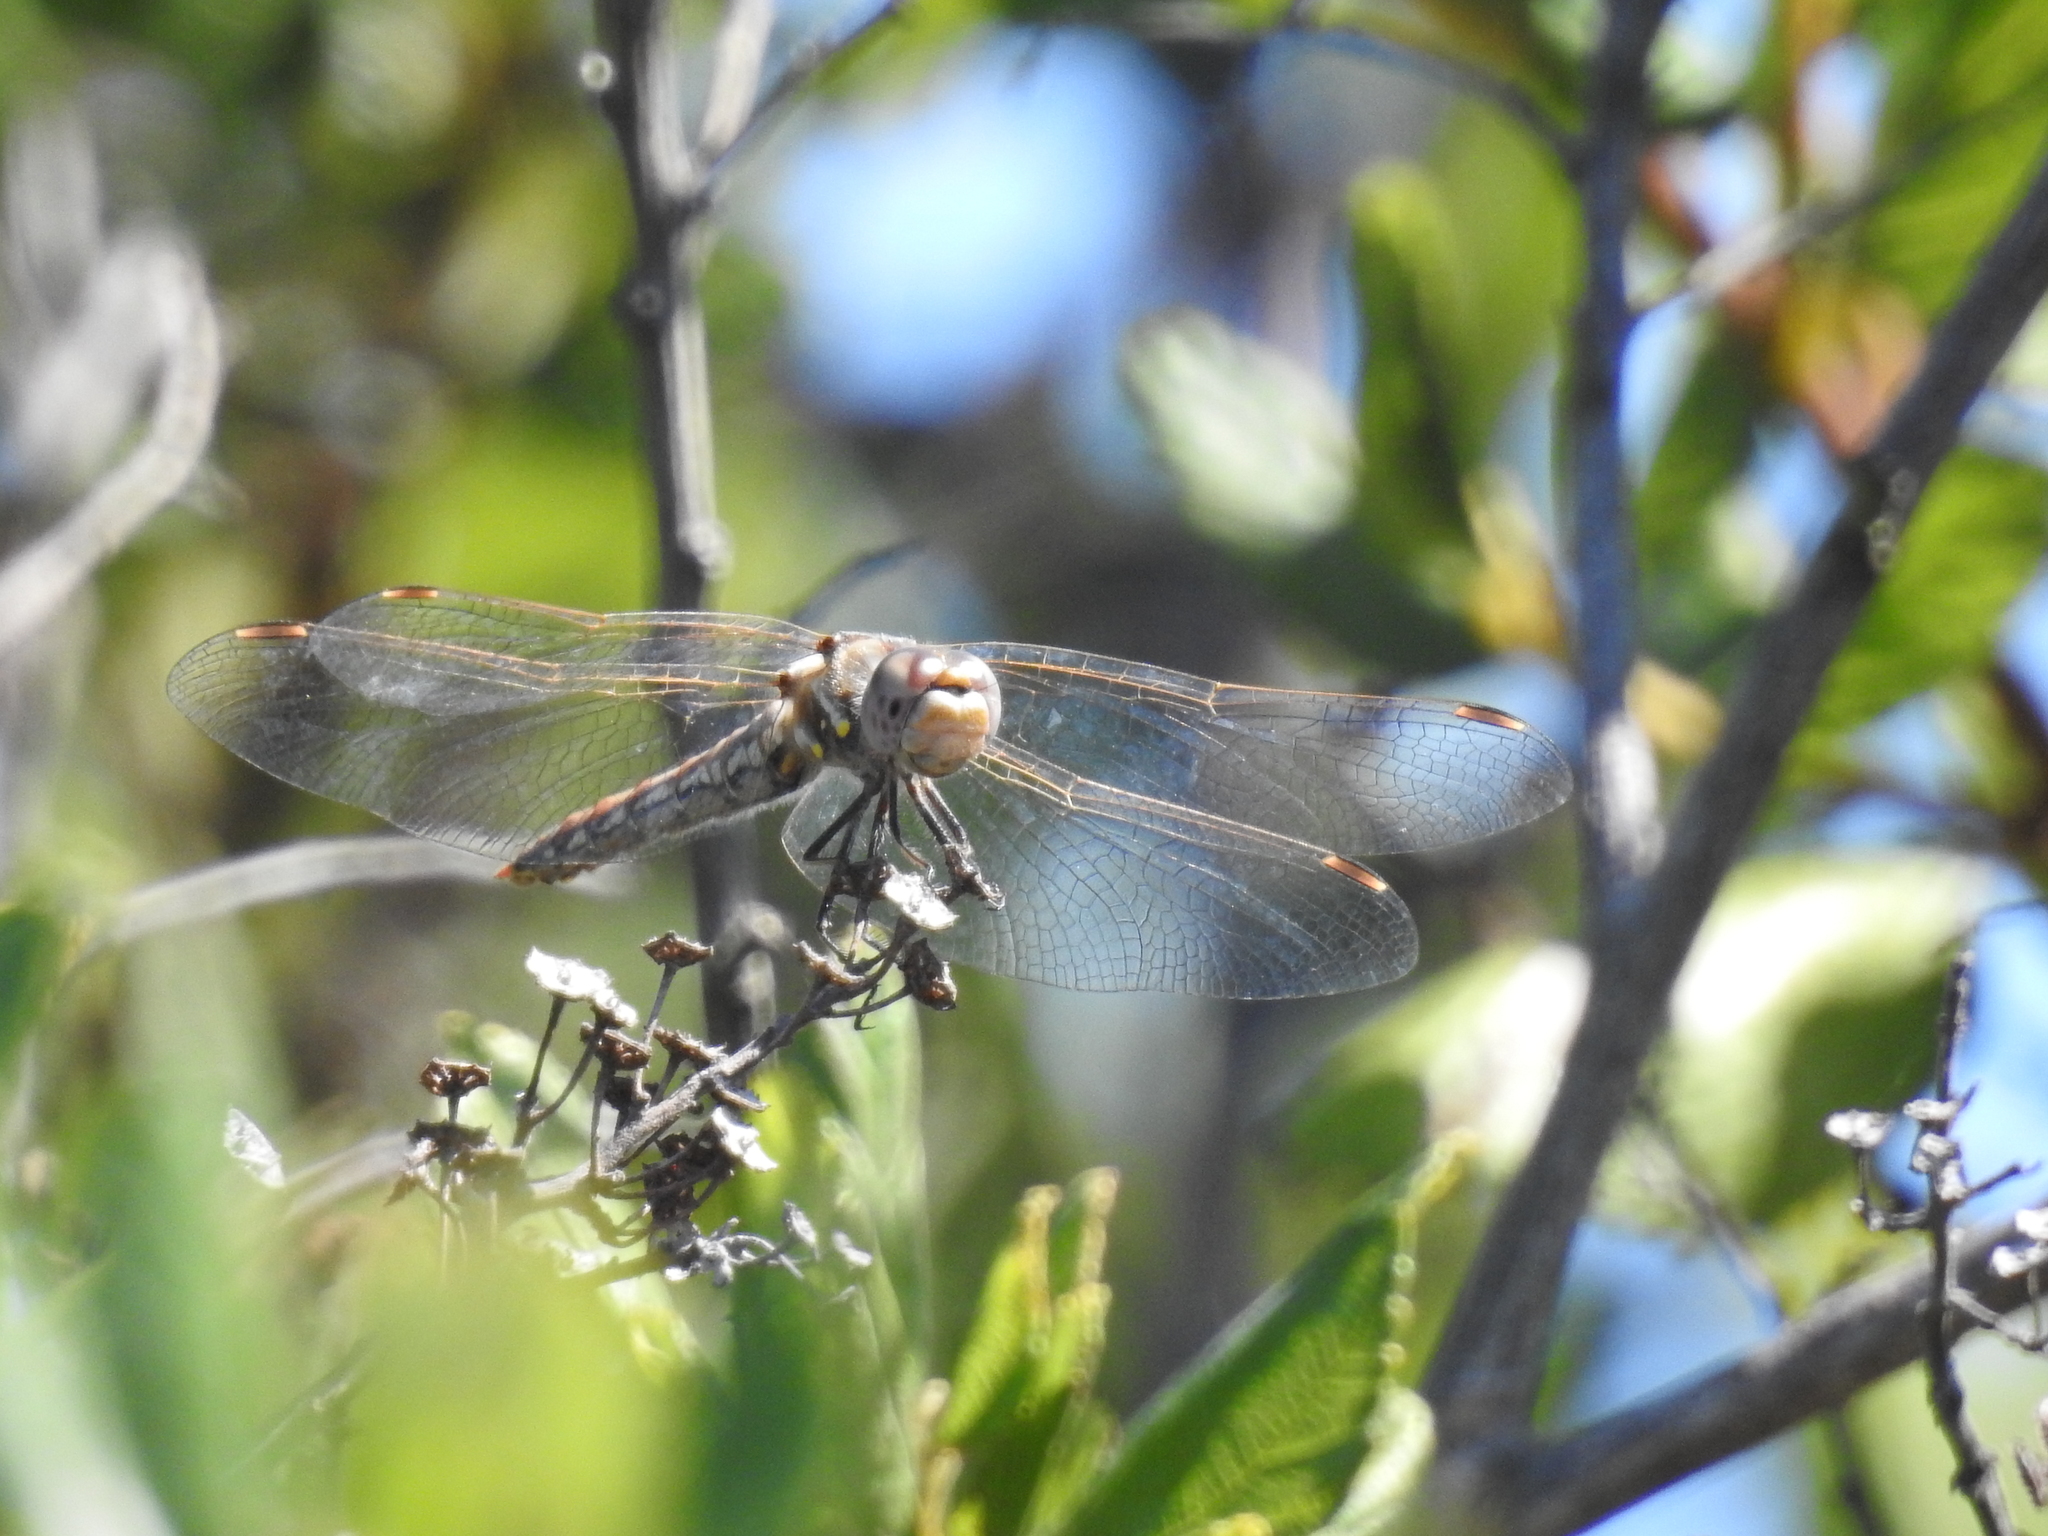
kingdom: Animalia
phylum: Arthropoda
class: Insecta
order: Odonata
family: Libellulidae
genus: Sympetrum
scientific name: Sympetrum corruptum
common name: Variegated meadowhawk
